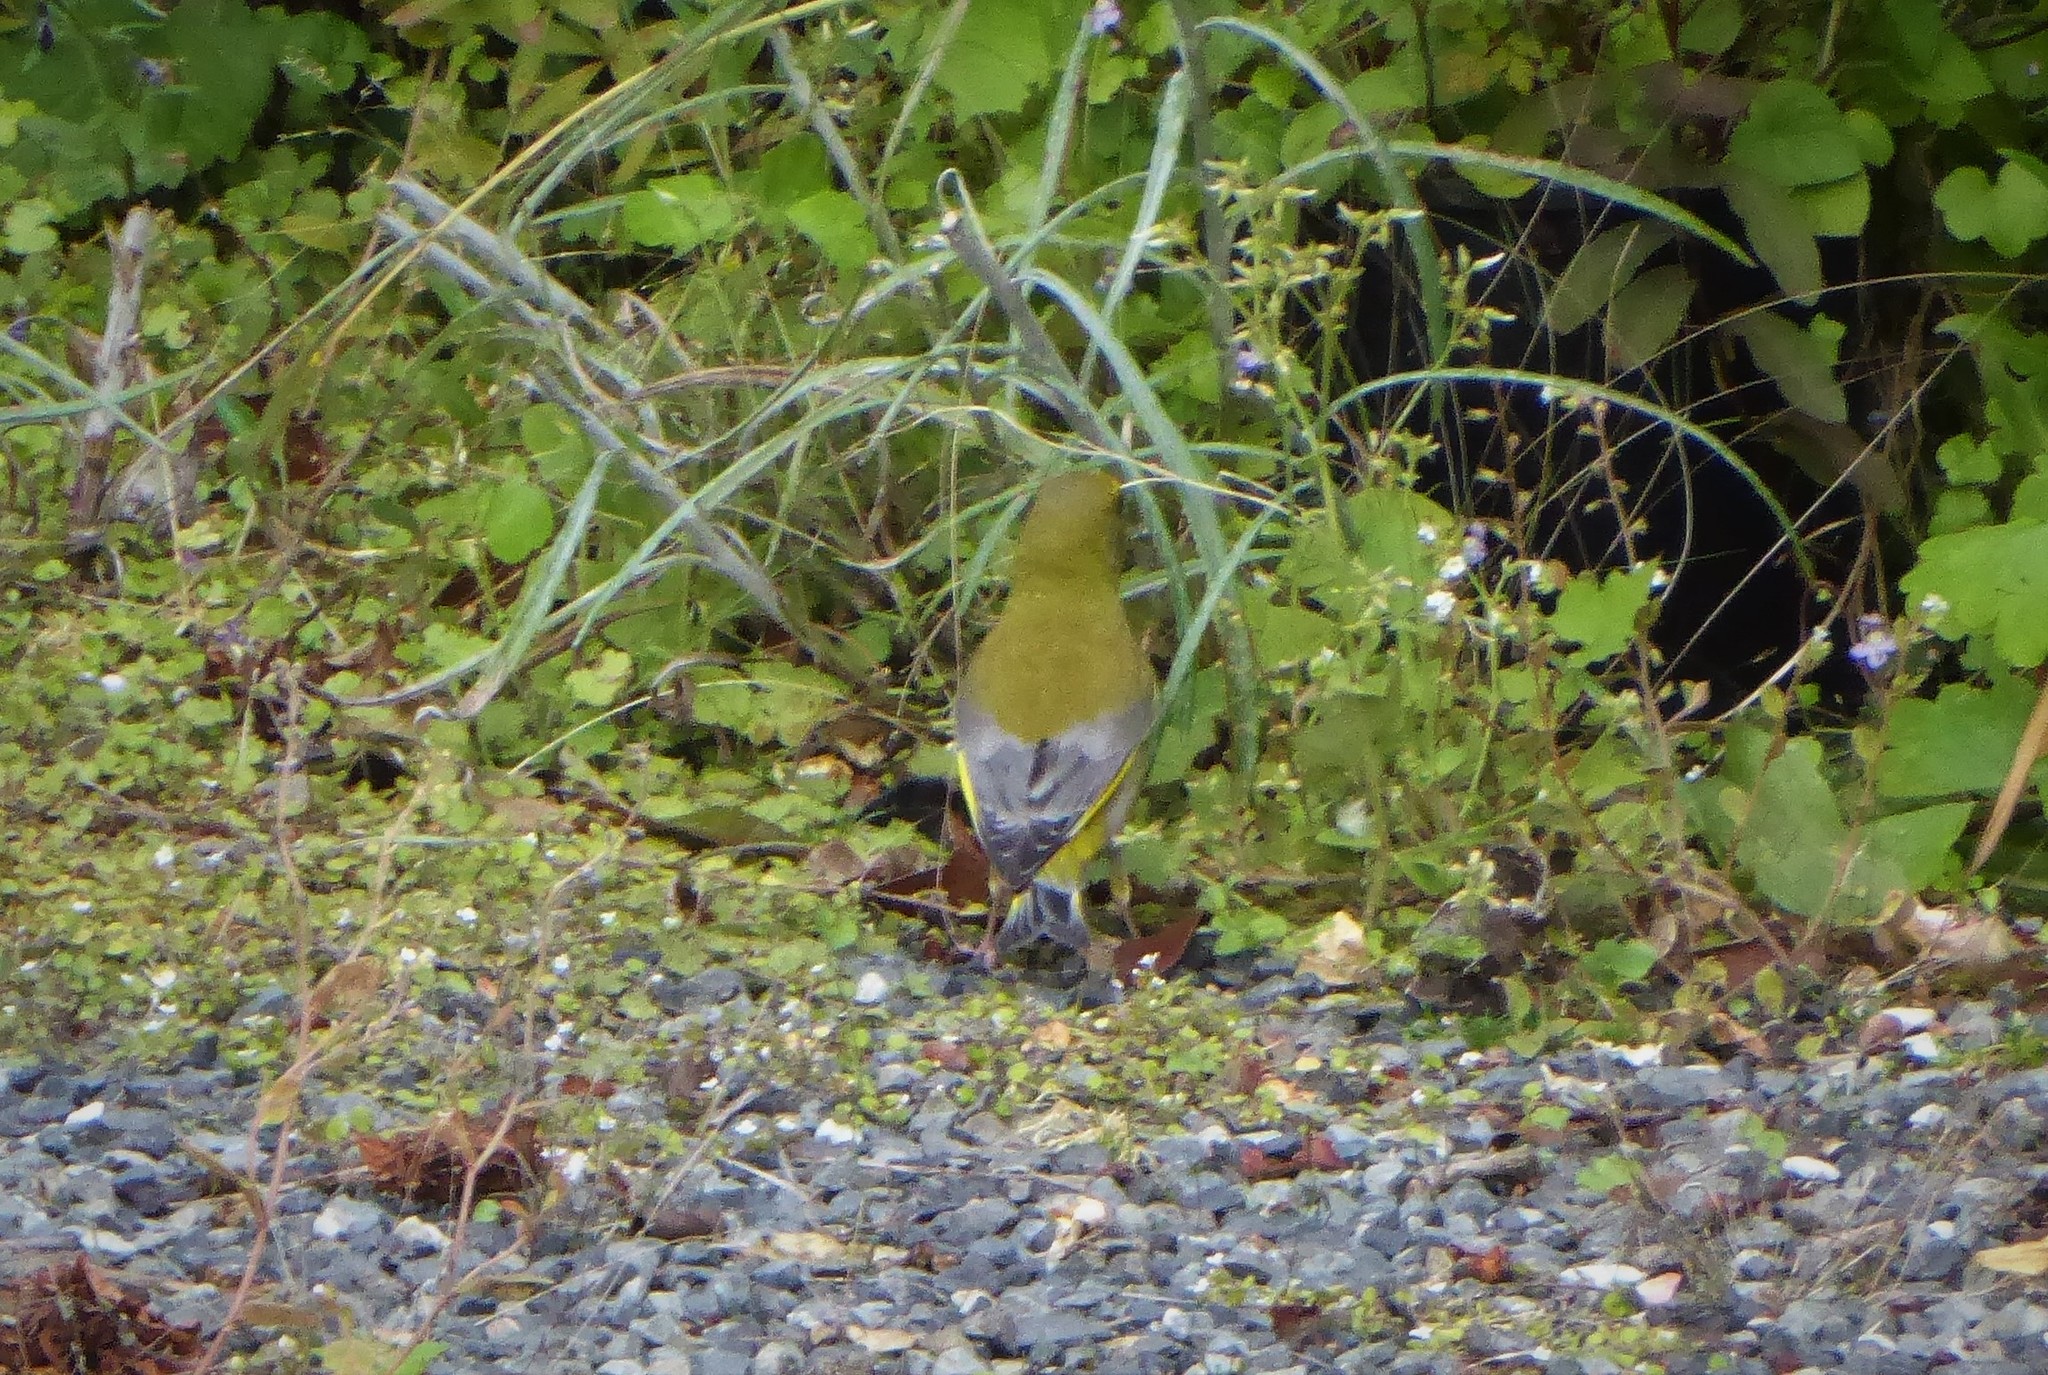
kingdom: Plantae
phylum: Tracheophyta
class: Liliopsida
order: Poales
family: Poaceae
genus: Chloris
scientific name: Chloris chloris
